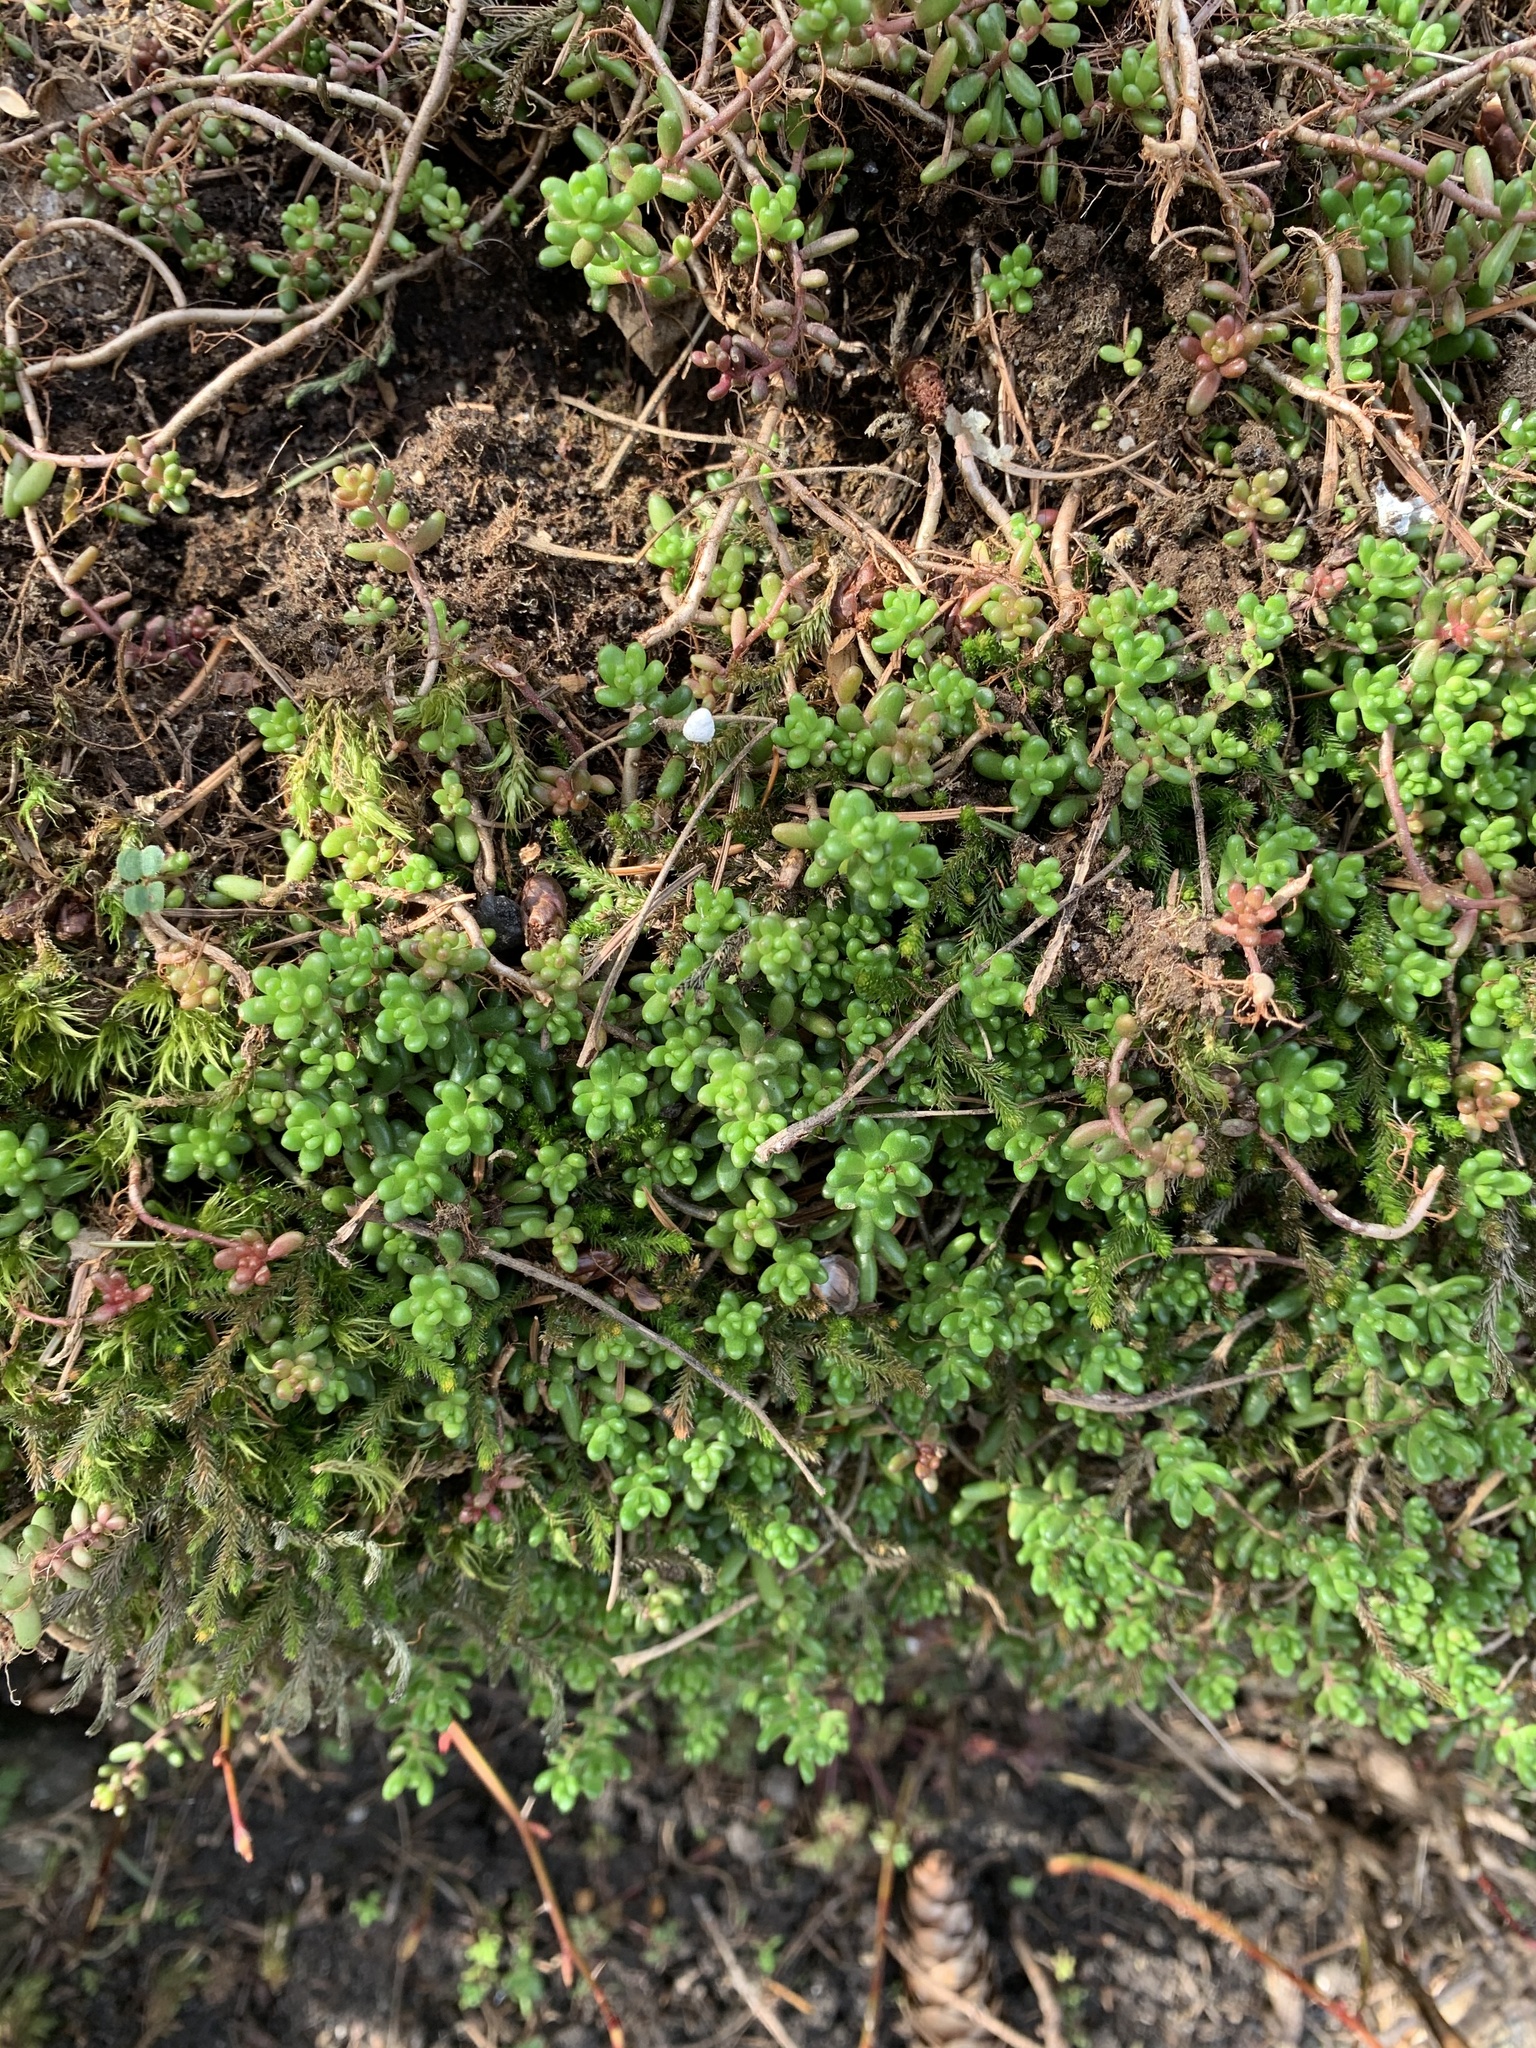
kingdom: Plantae
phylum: Tracheophyta
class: Magnoliopsida
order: Saxifragales
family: Crassulaceae
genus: Sedum
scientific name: Sedum album
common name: White stonecrop
